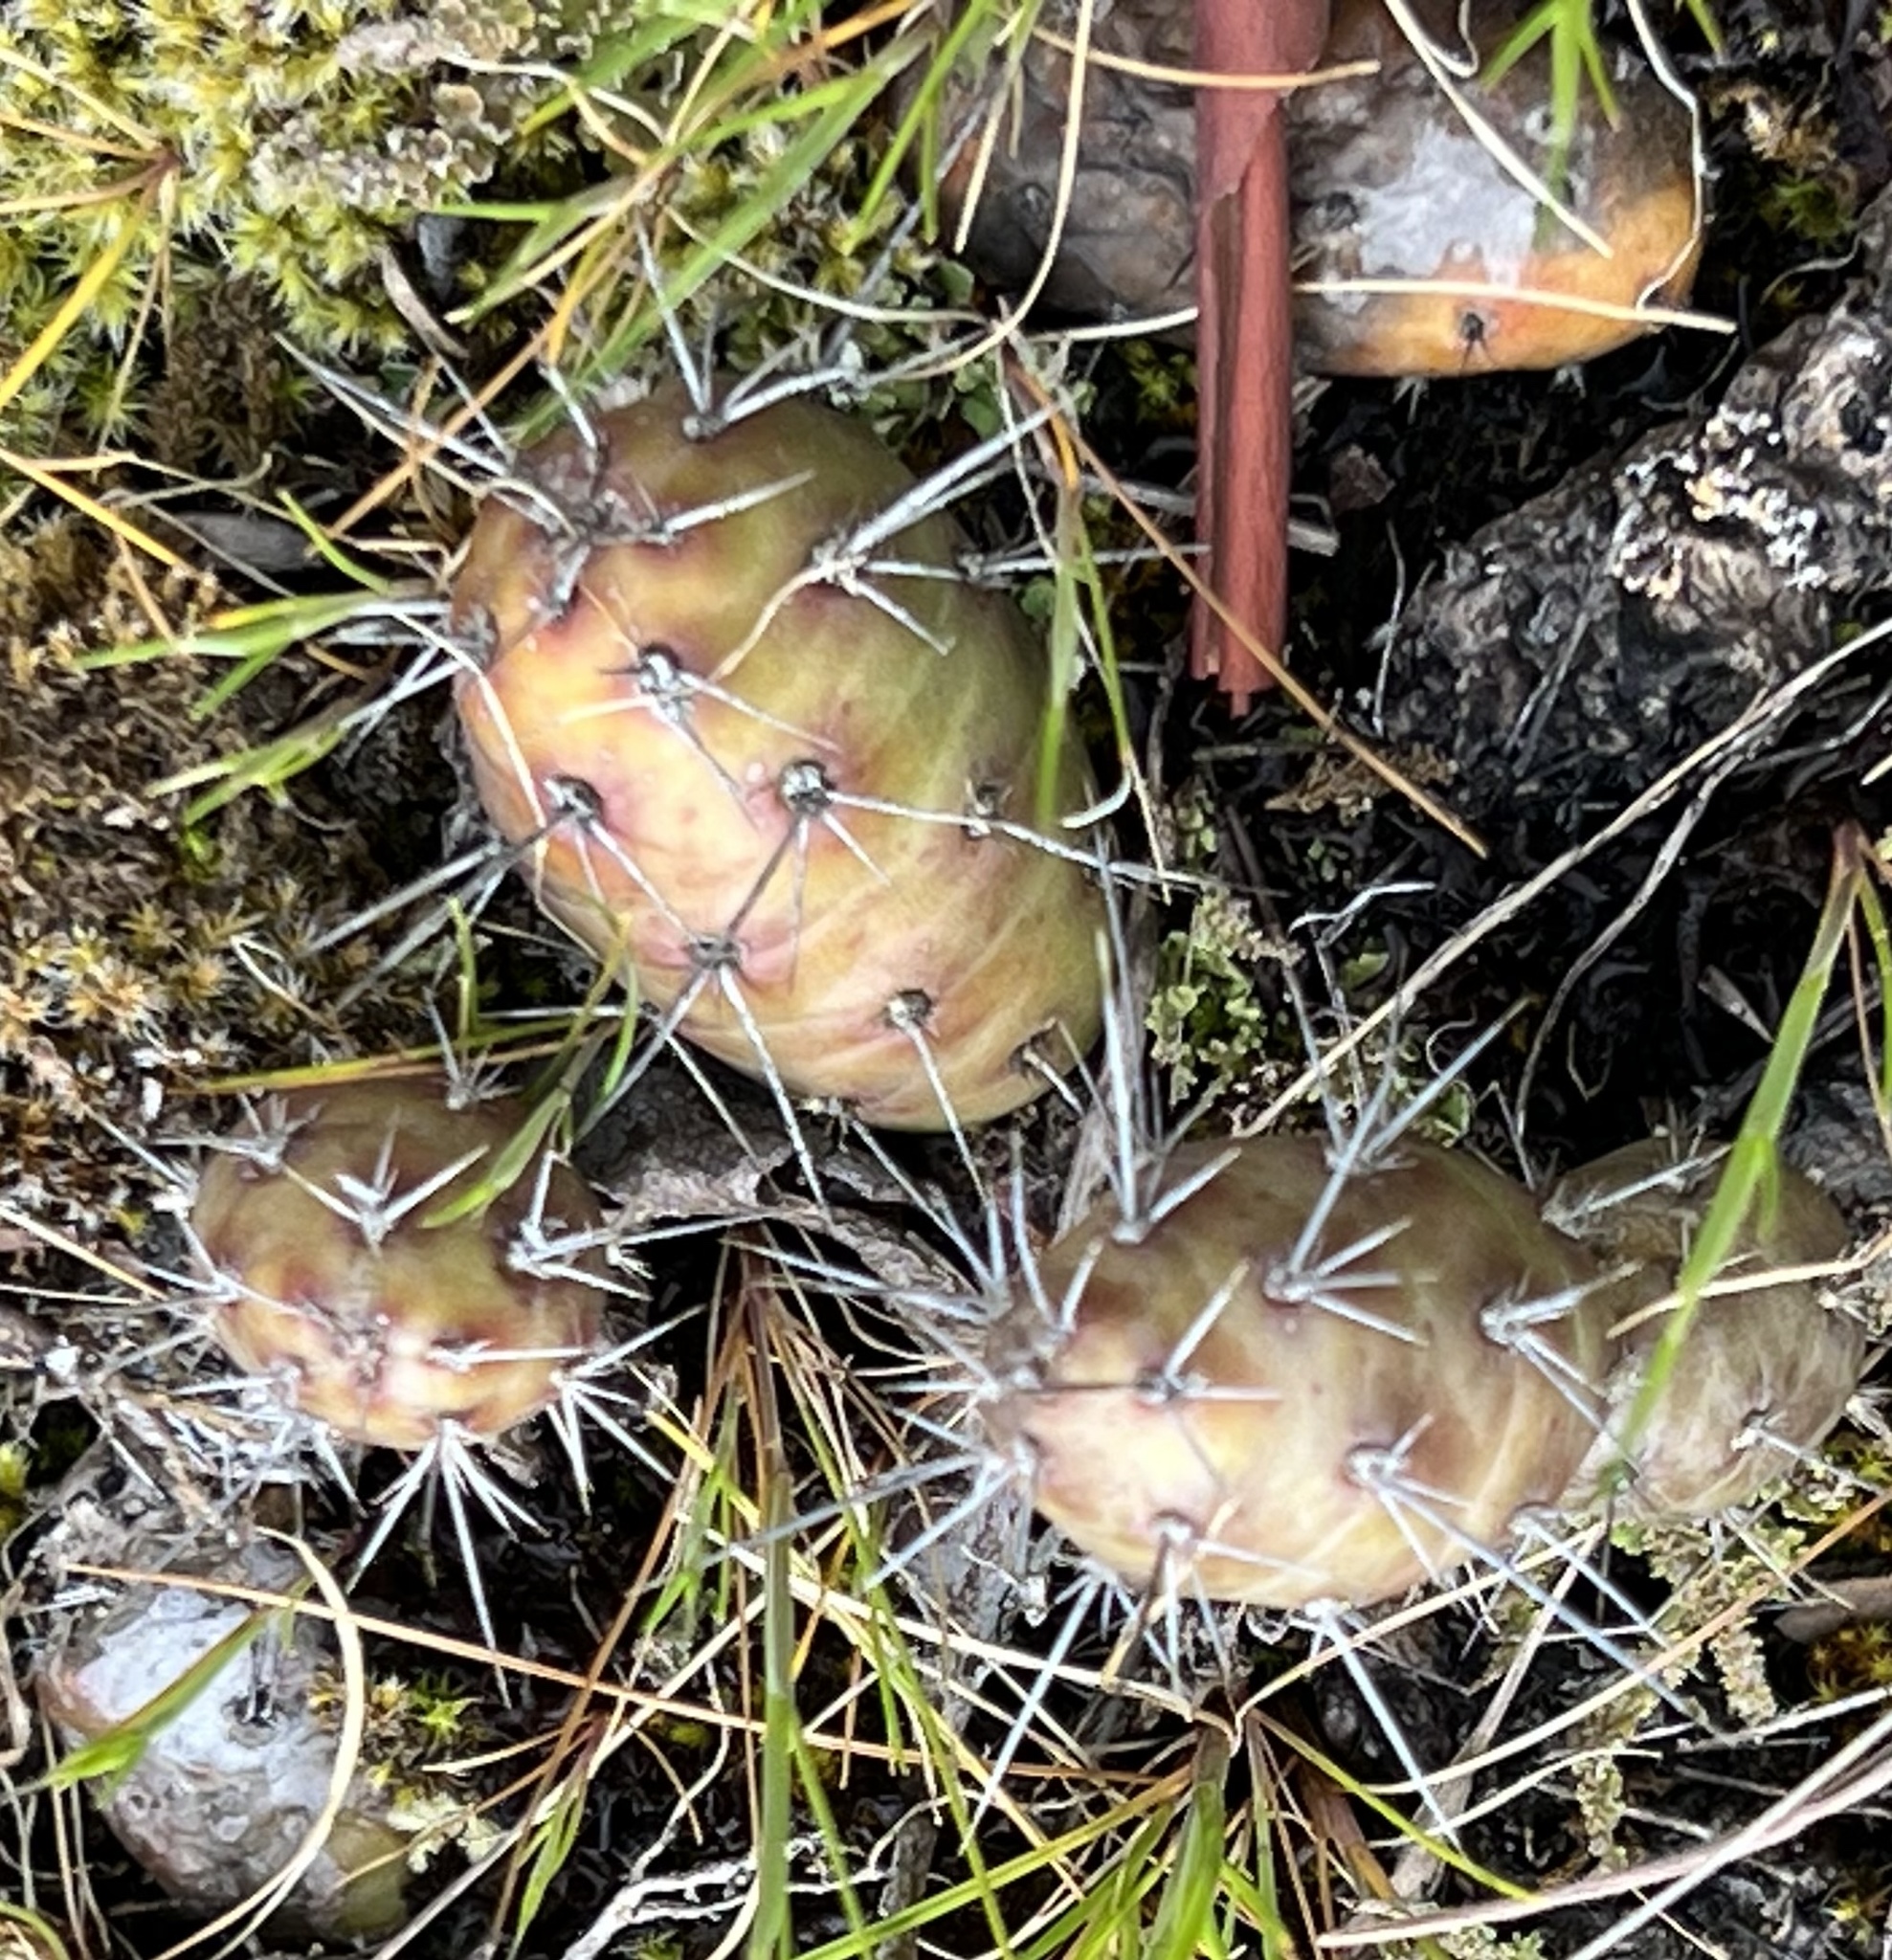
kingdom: Plantae
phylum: Tracheophyta
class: Magnoliopsida
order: Caryophyllales
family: Cactaceae
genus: Opuntia
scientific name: Opuntia fragilis
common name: Brittle cactus
